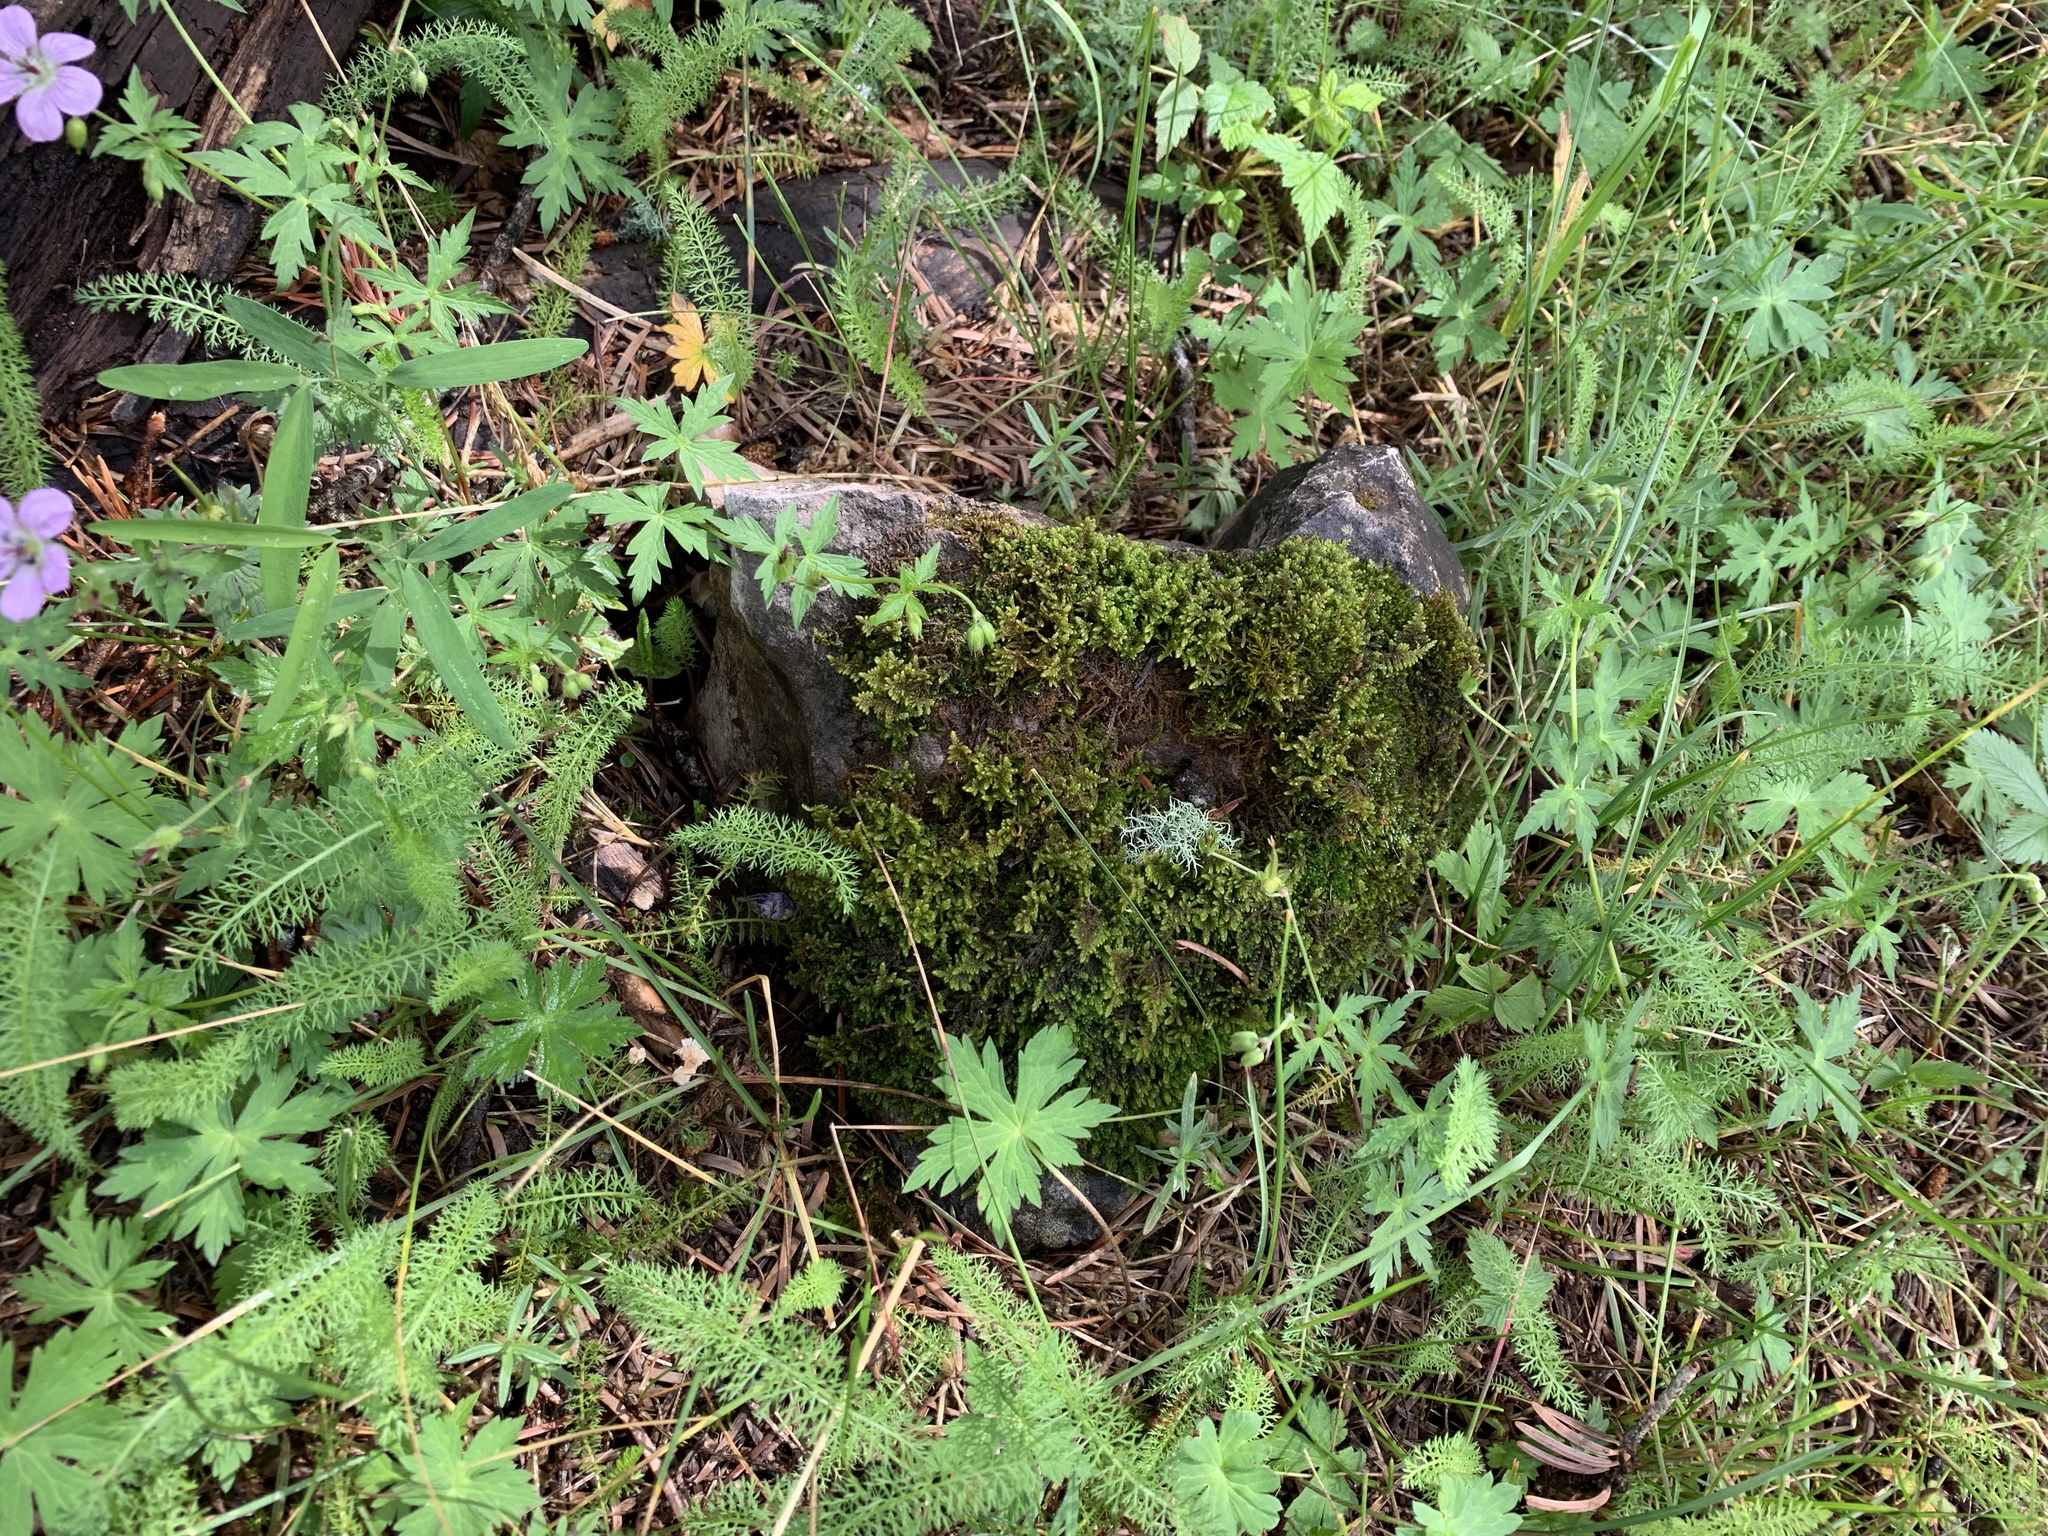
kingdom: Plantae
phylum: Bryophyta
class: Bryopsida
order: Hypnales
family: Pylaisiaceae
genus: Roaldia
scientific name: Roaldia revoluta
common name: Revolute plait-moss
